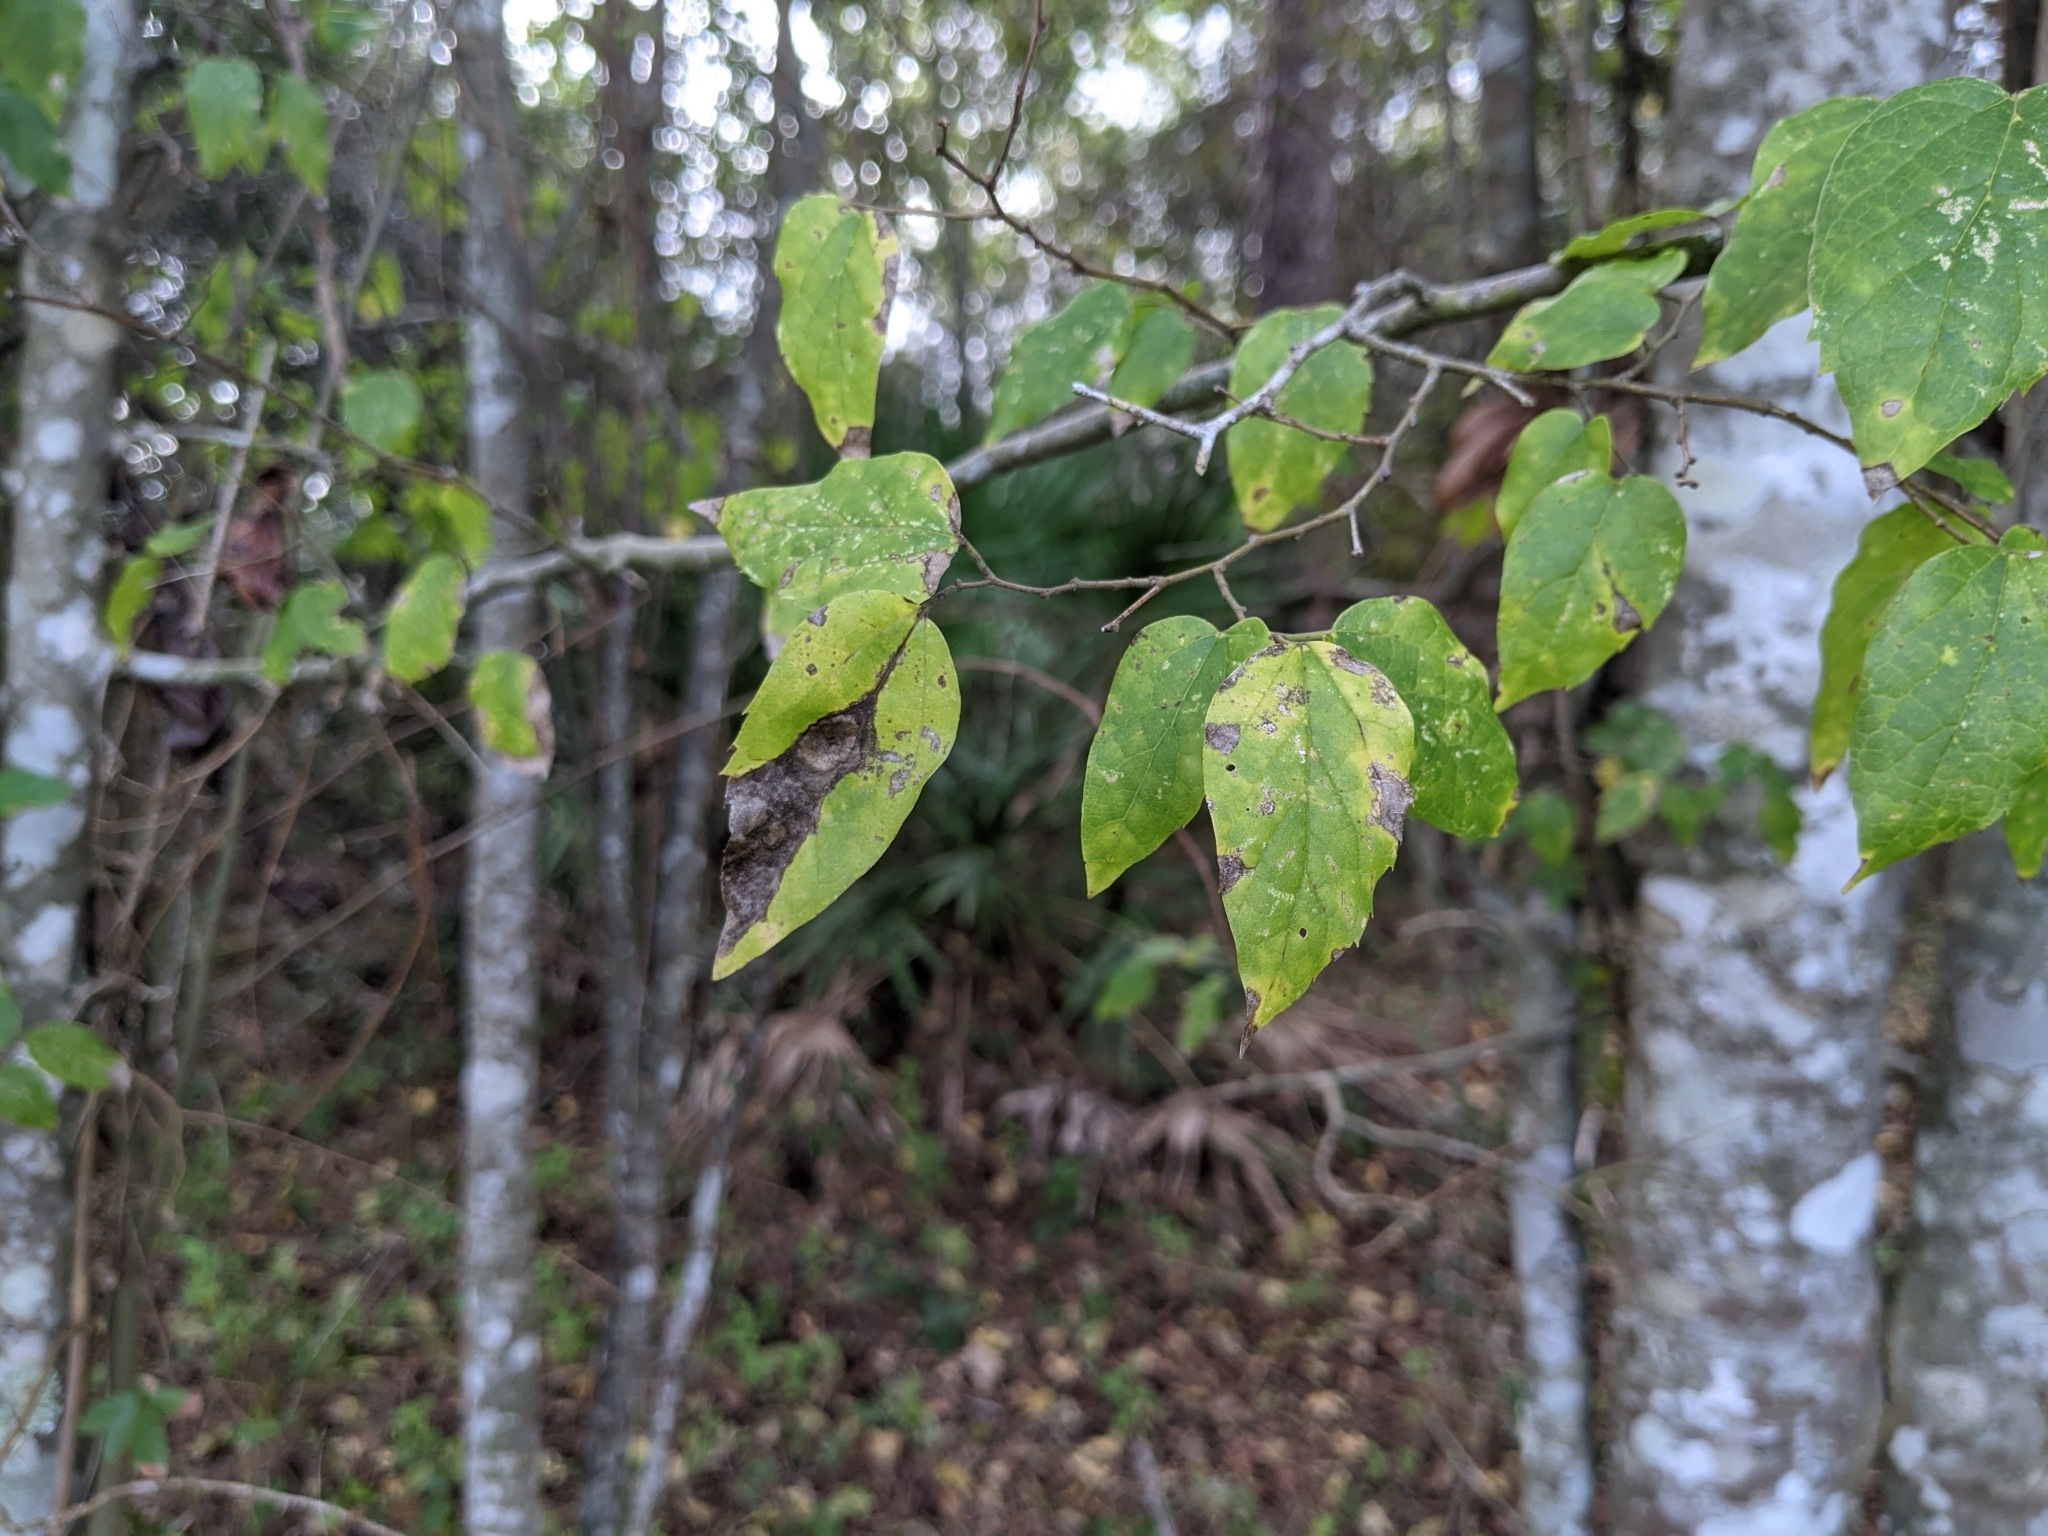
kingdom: Plantae
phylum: Tracheophyta
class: Magnoliopsida
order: Rosales
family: Cannabaceae
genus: Celtis
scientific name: Celtis laevigata
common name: Sugarberry
